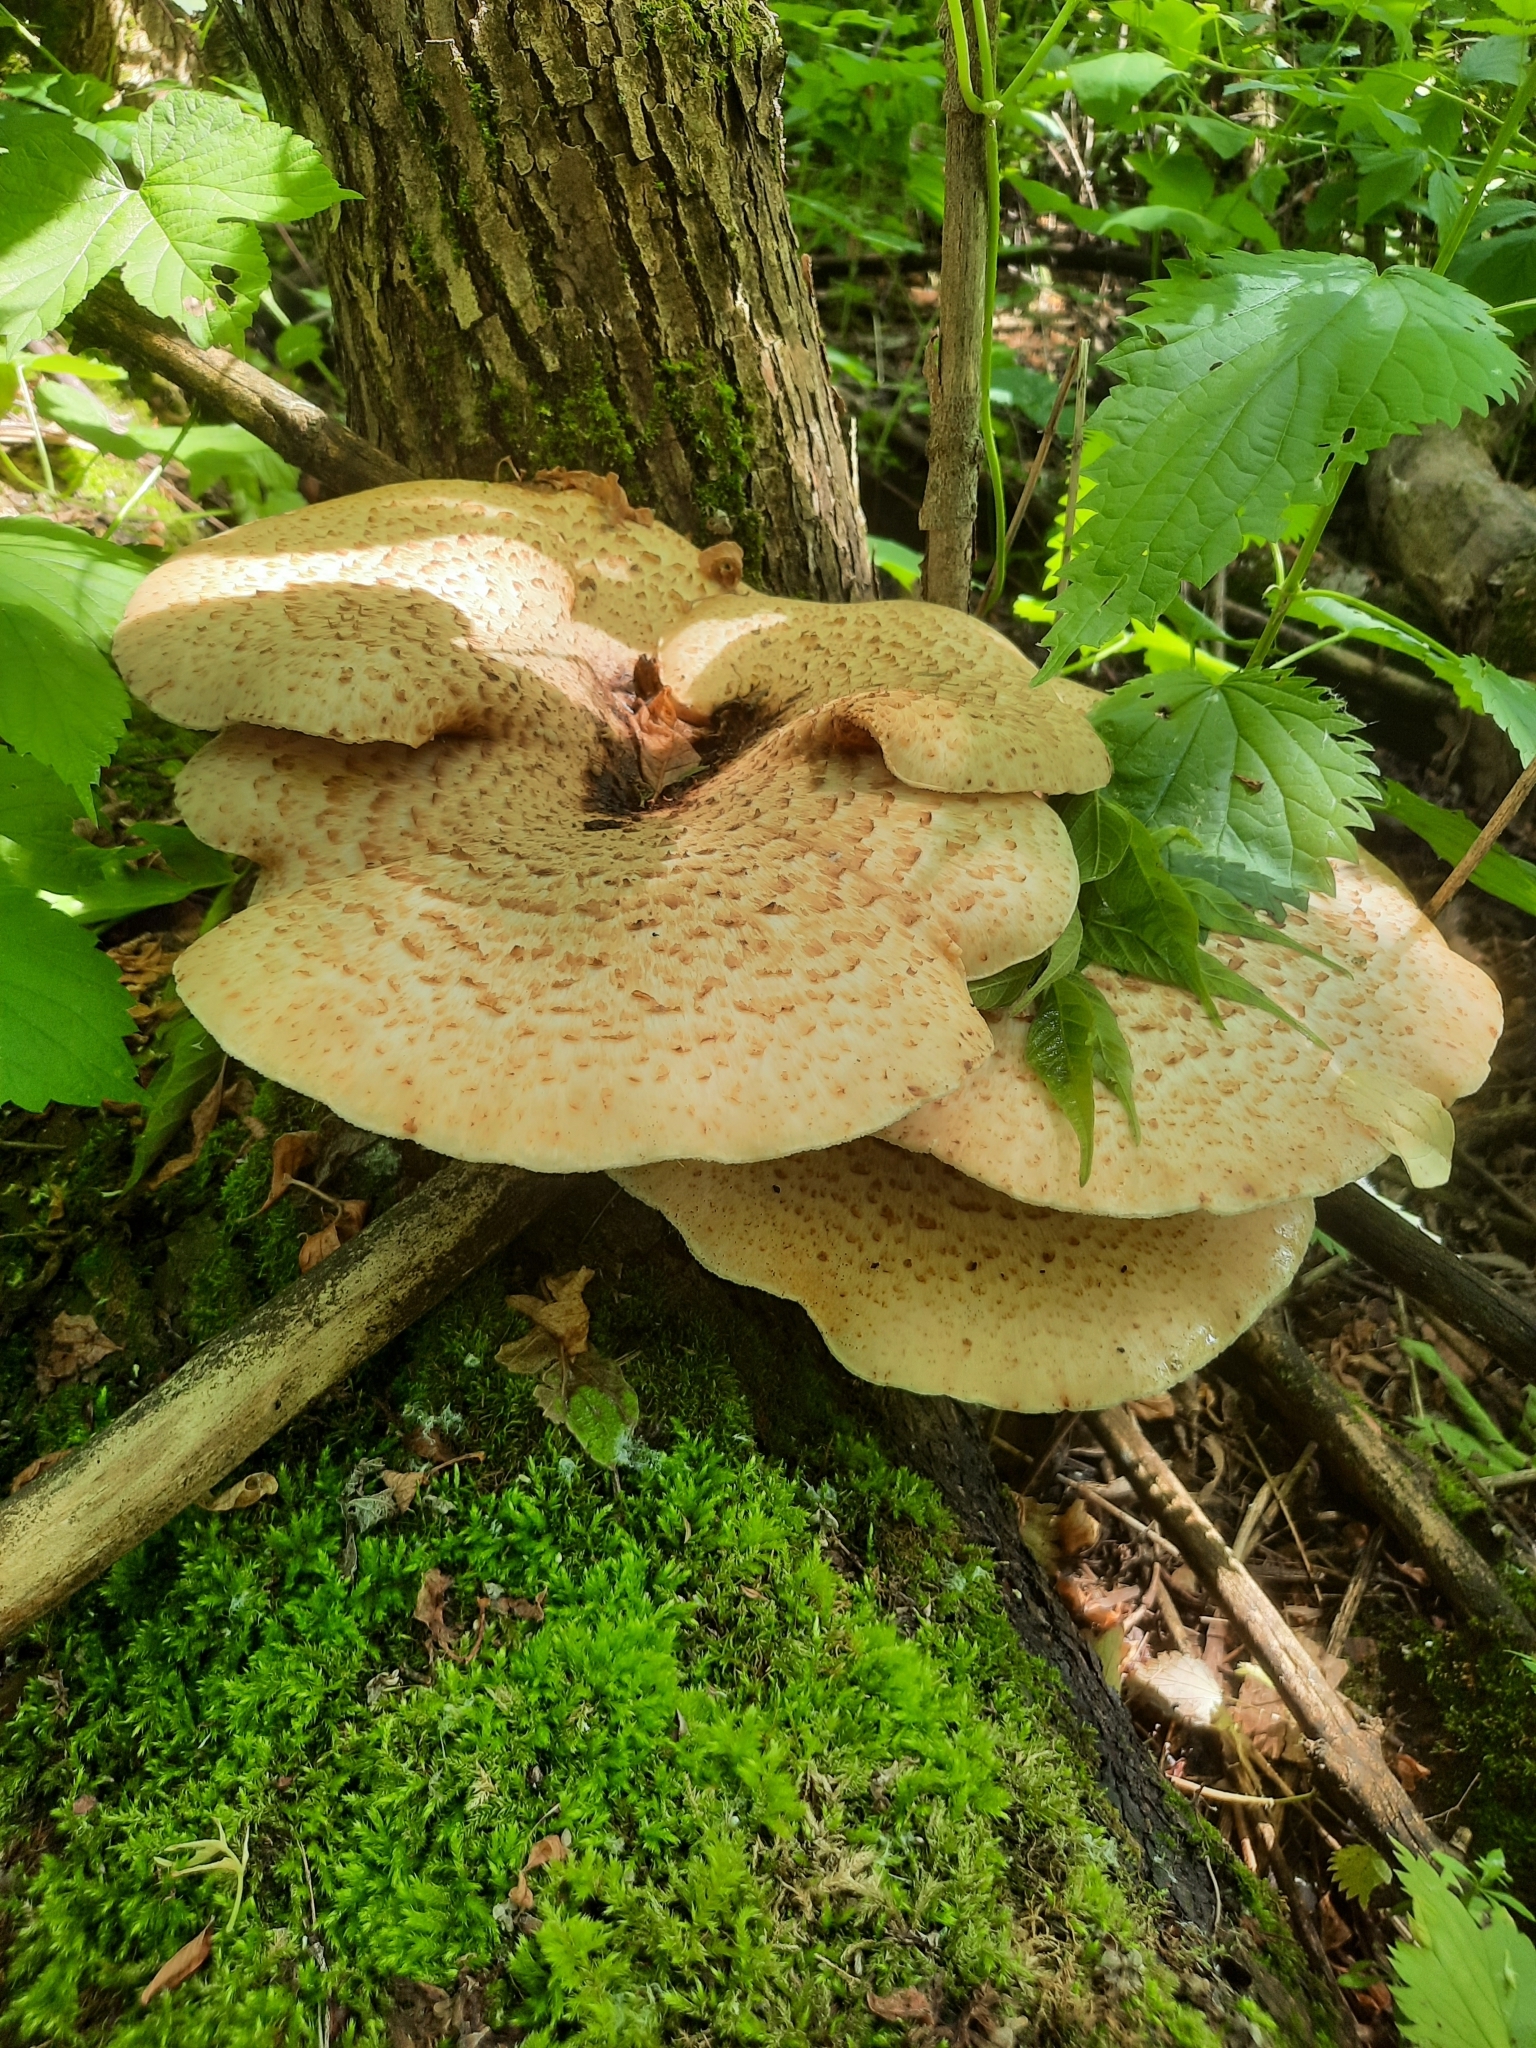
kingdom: Fungi
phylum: Basidiomycota
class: Agaricomycetes
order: Polyporales
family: Polyporaceae
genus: Cerioporus
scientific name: Cerioporus squamosus
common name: Dryad's saddle
